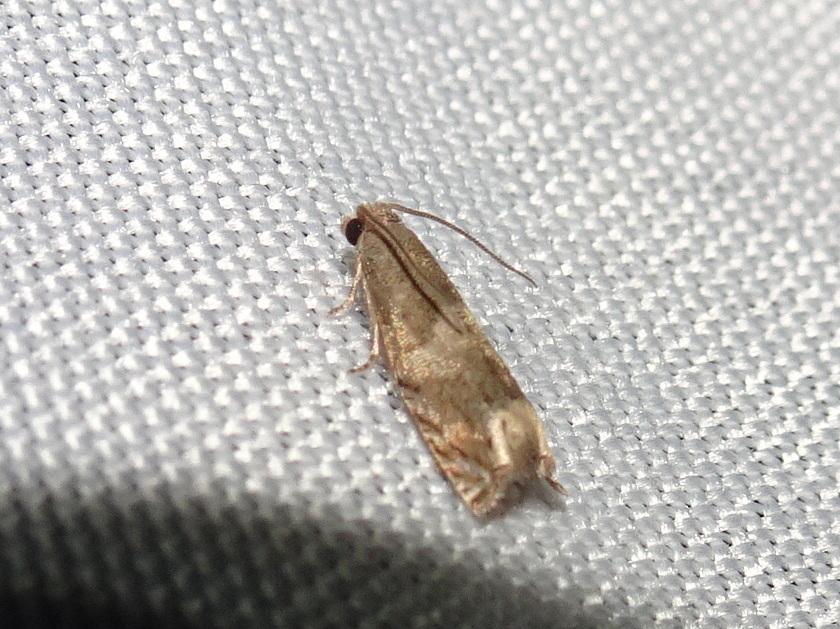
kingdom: Animalia
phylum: Arthropoda
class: Insecta
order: Lepidoptera
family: Tortricidae
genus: Epiblema
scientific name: Epiblema strenuana
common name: Ragweed borer moth
